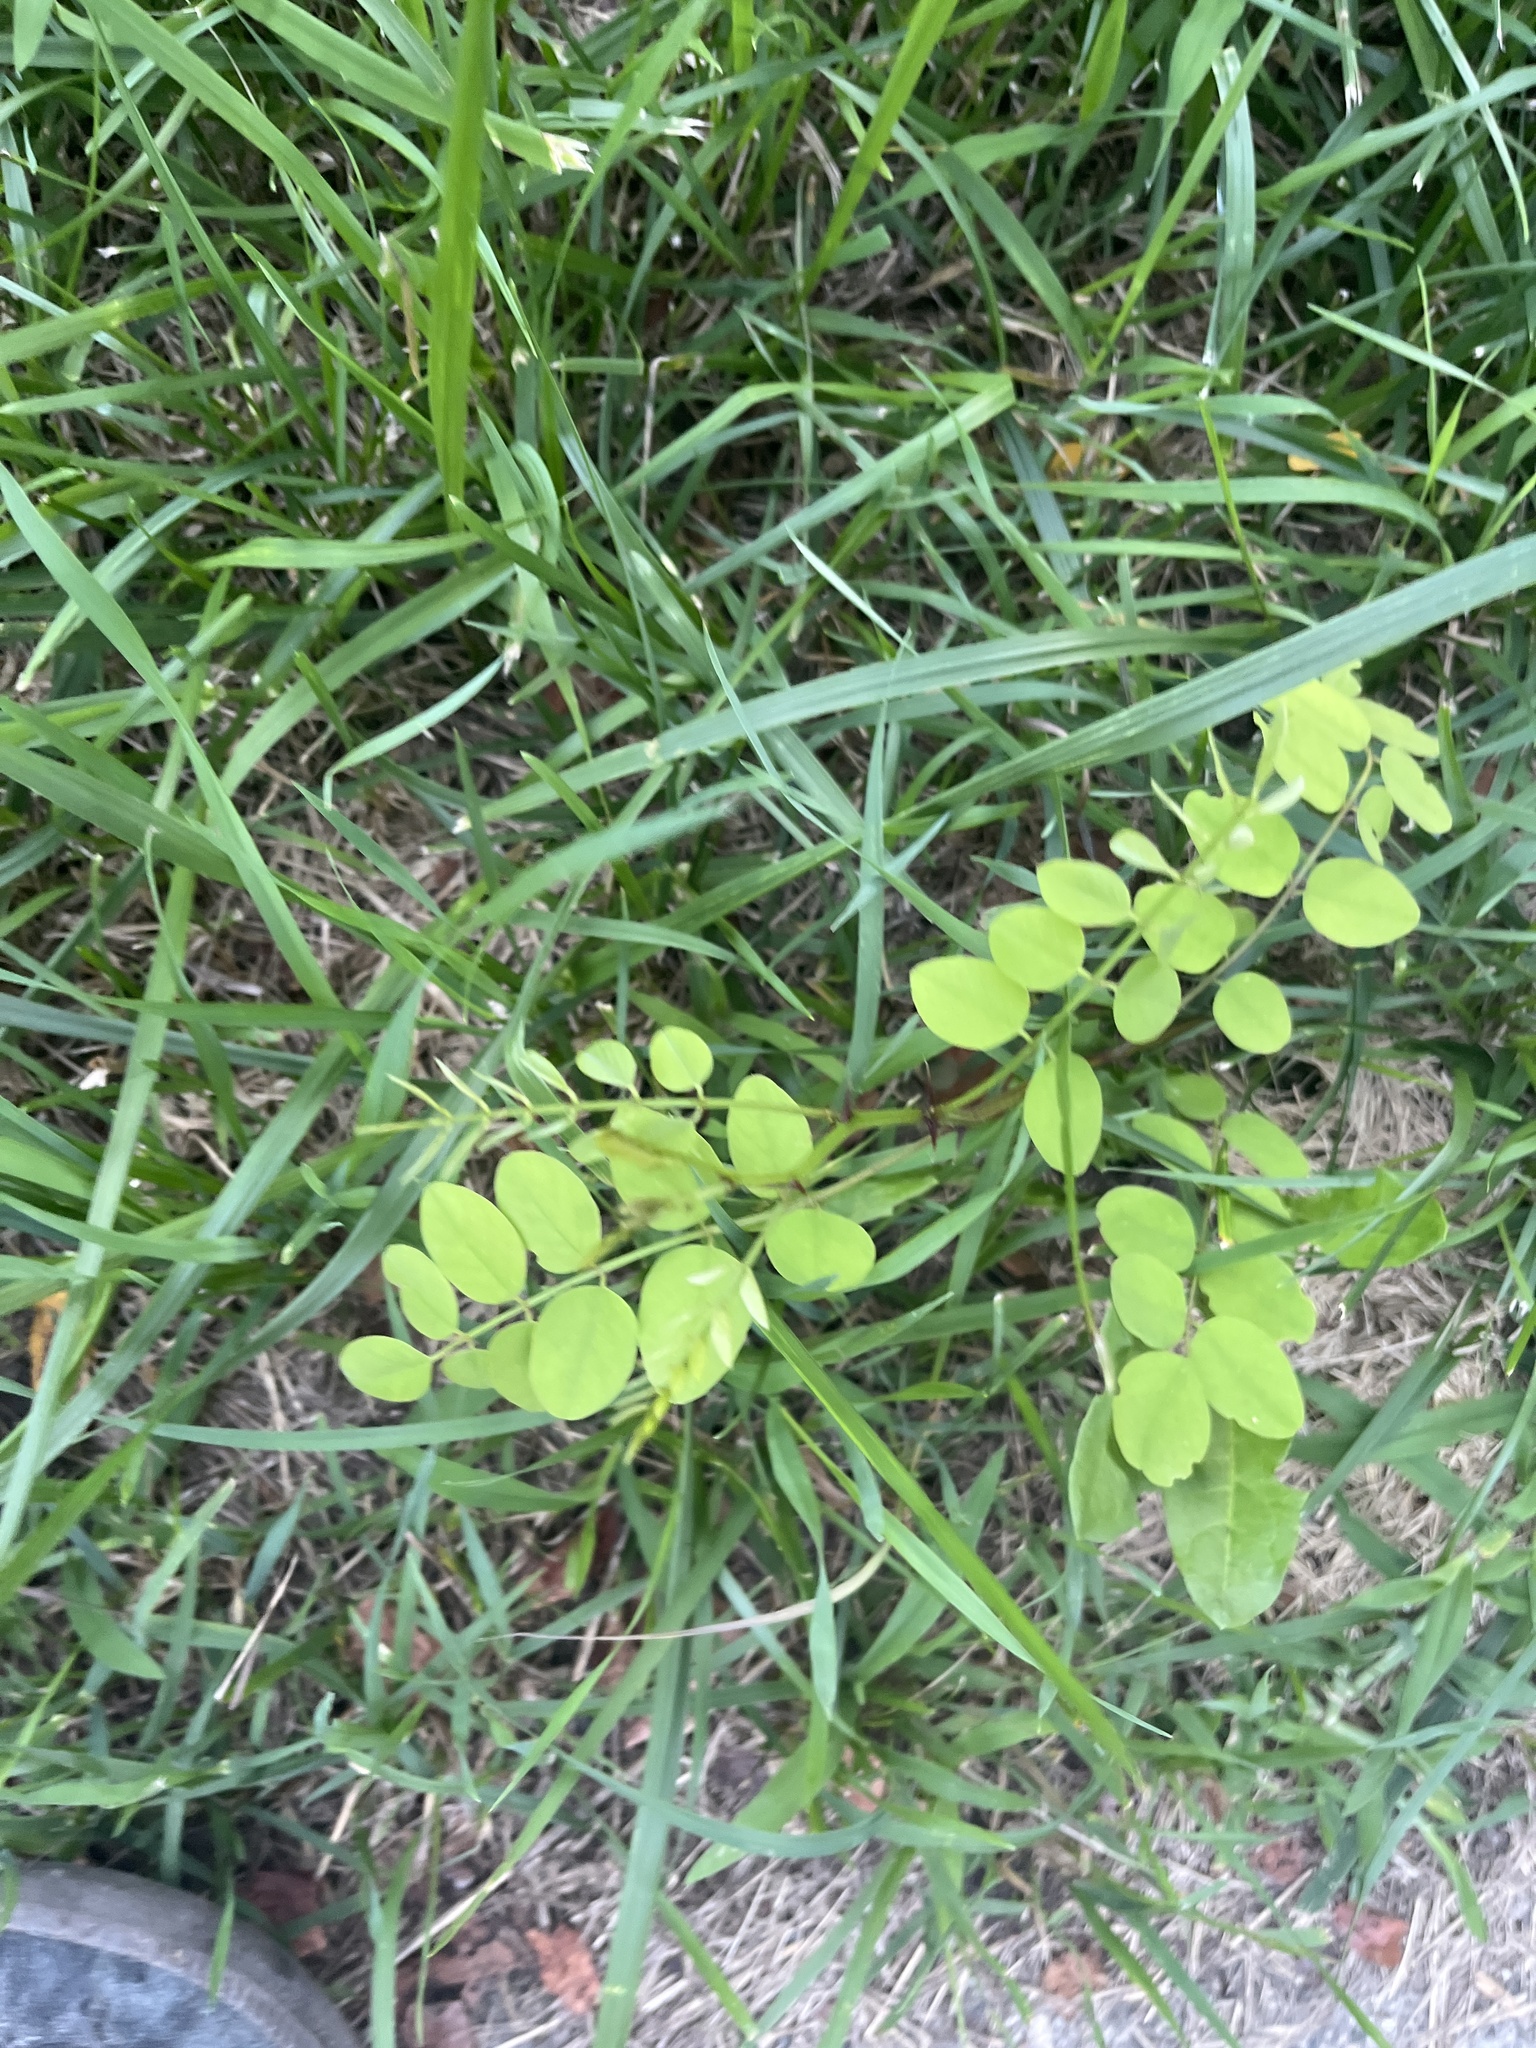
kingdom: Plantae
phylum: Tracheophyta
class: Magnoliopsida
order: Fabales
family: Fabaceae
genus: Robinia
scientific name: Robinia pseudoacacia
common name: Black locust
